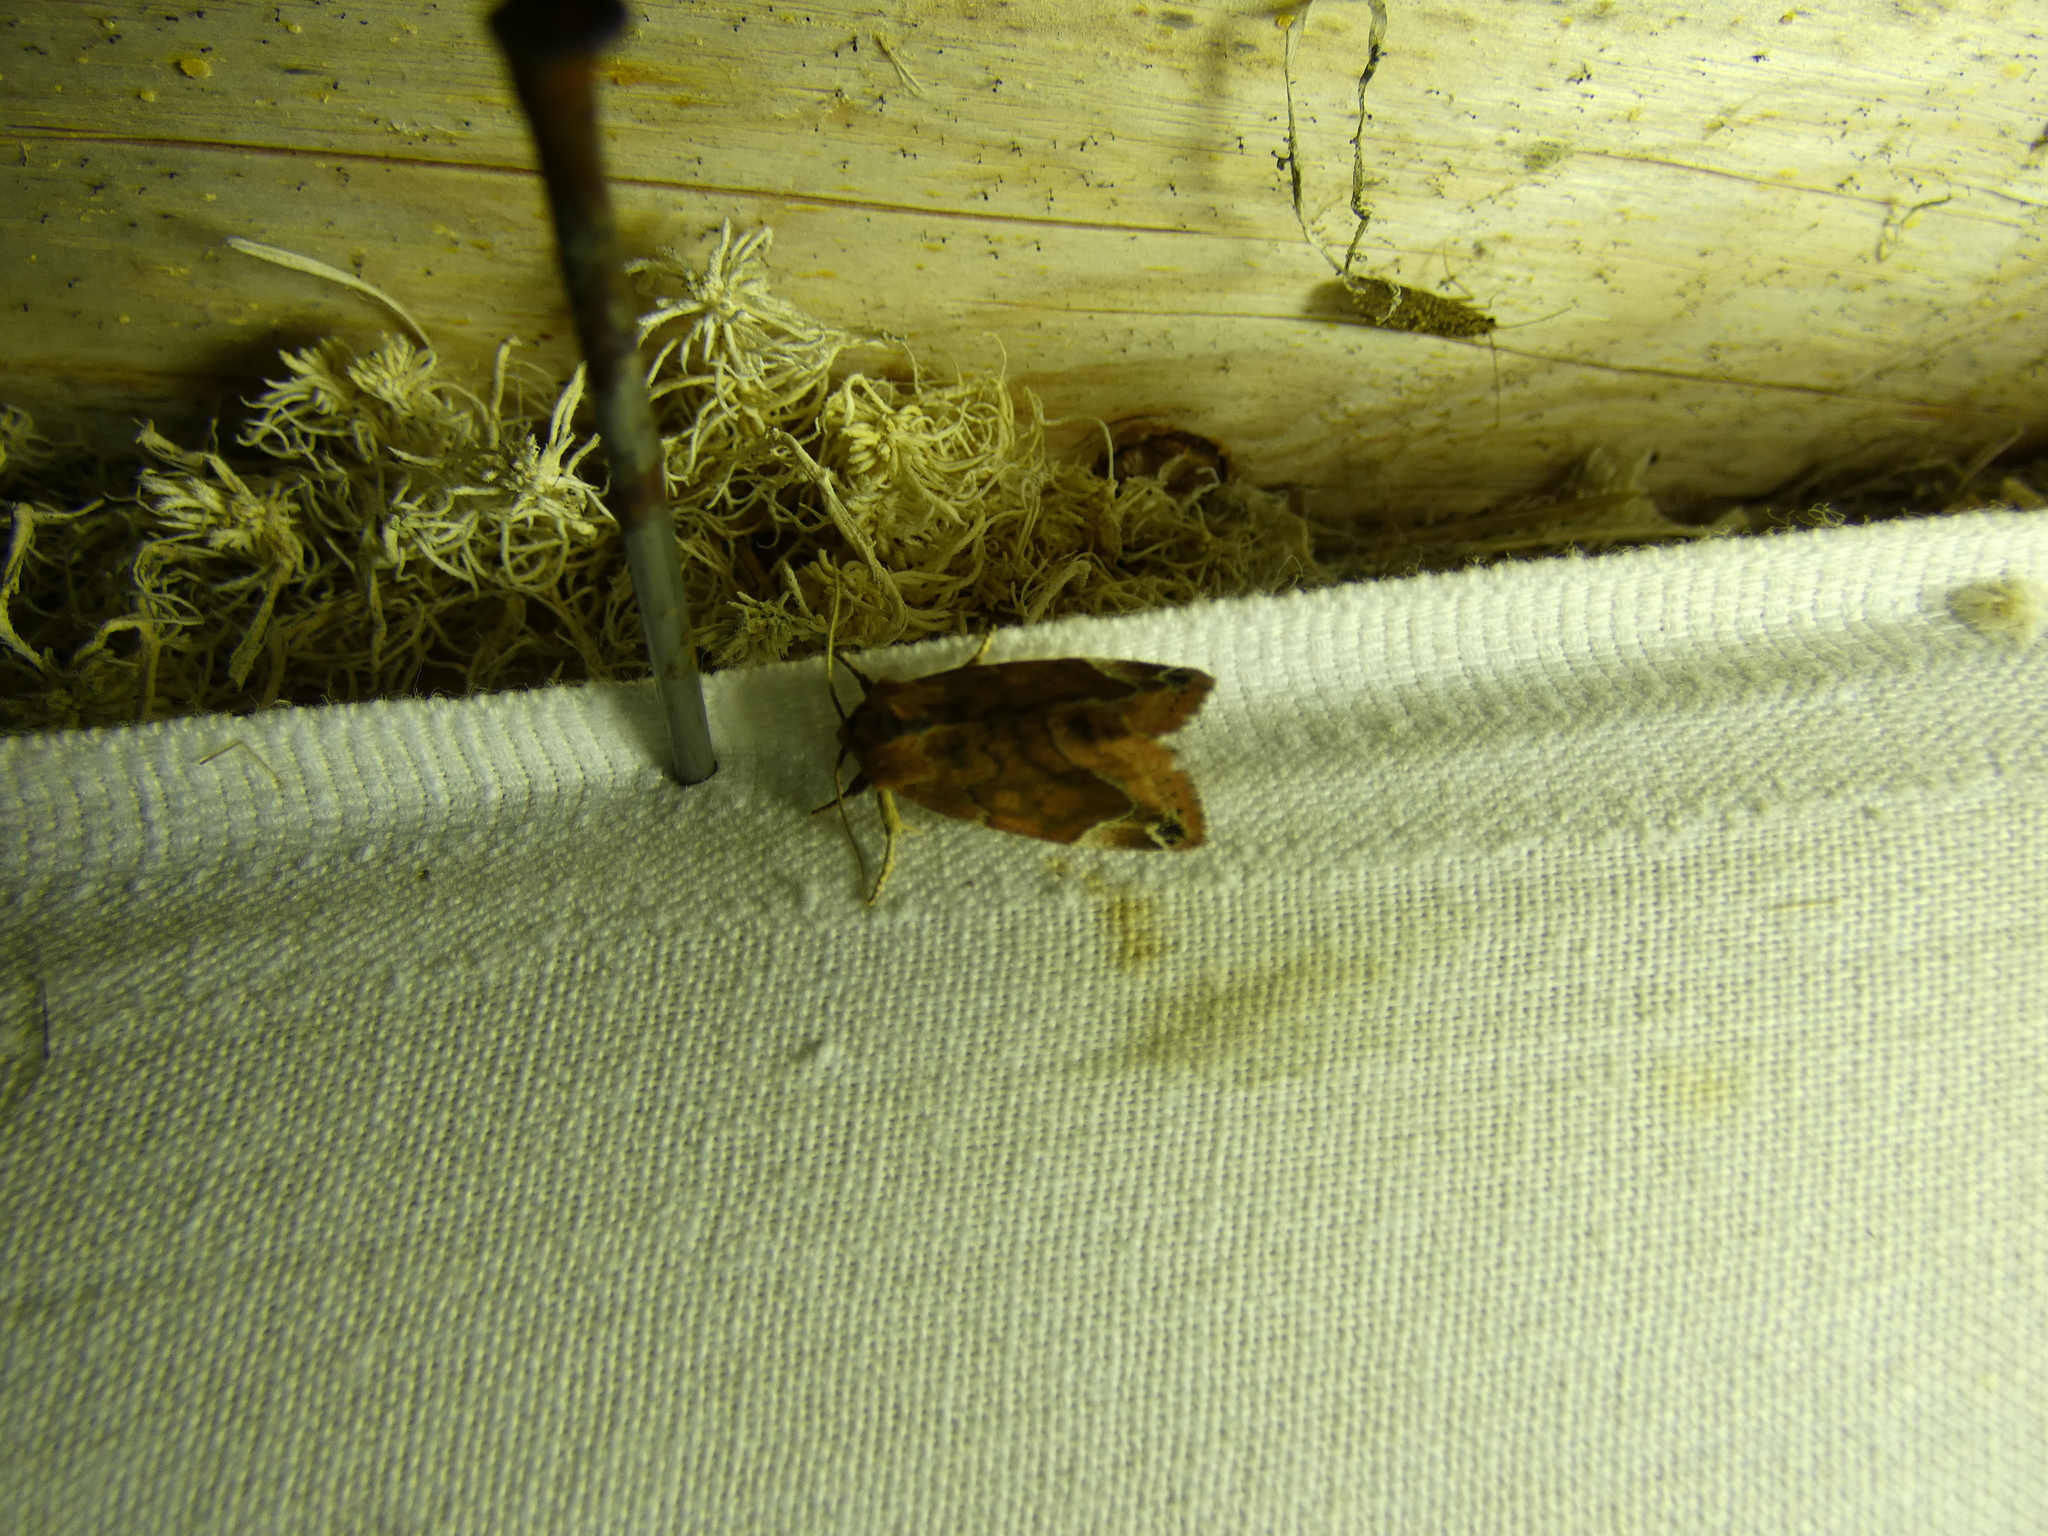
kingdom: Animalia
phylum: Arthropoda
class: Insecta
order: Lepidoptera
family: Noctuidae
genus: Cosmia
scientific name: Cosmia pyralina
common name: Lunar-spotted pinion
